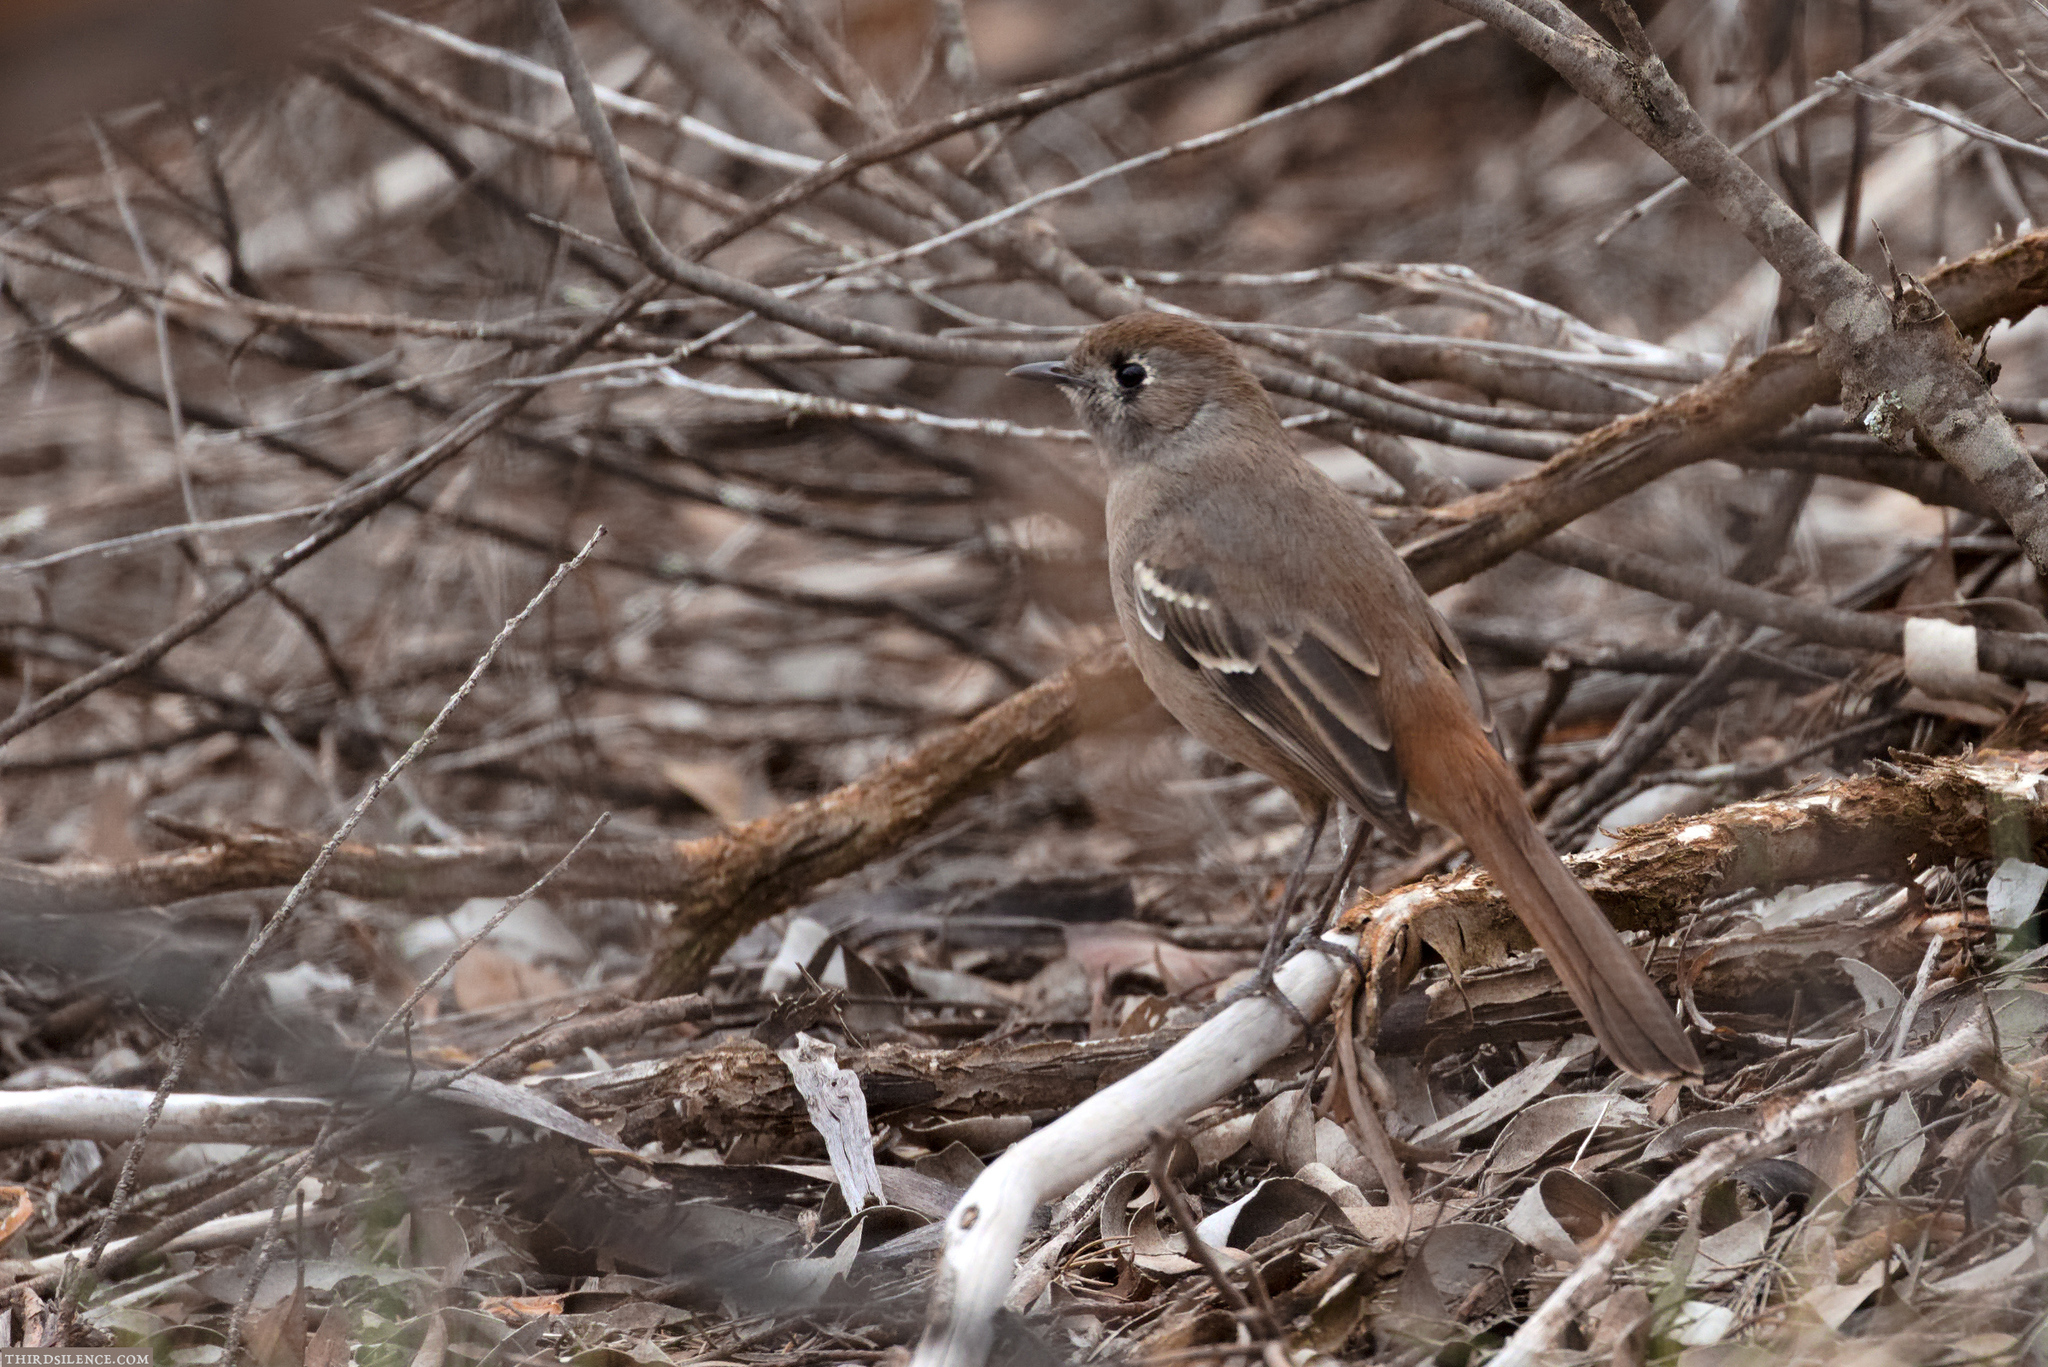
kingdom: Animalia
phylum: Chordata
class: Aves
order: Passeriformes
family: Petroicidae
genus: Drymodes
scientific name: Drymodes brunneopygia
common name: Southern scrub robin
